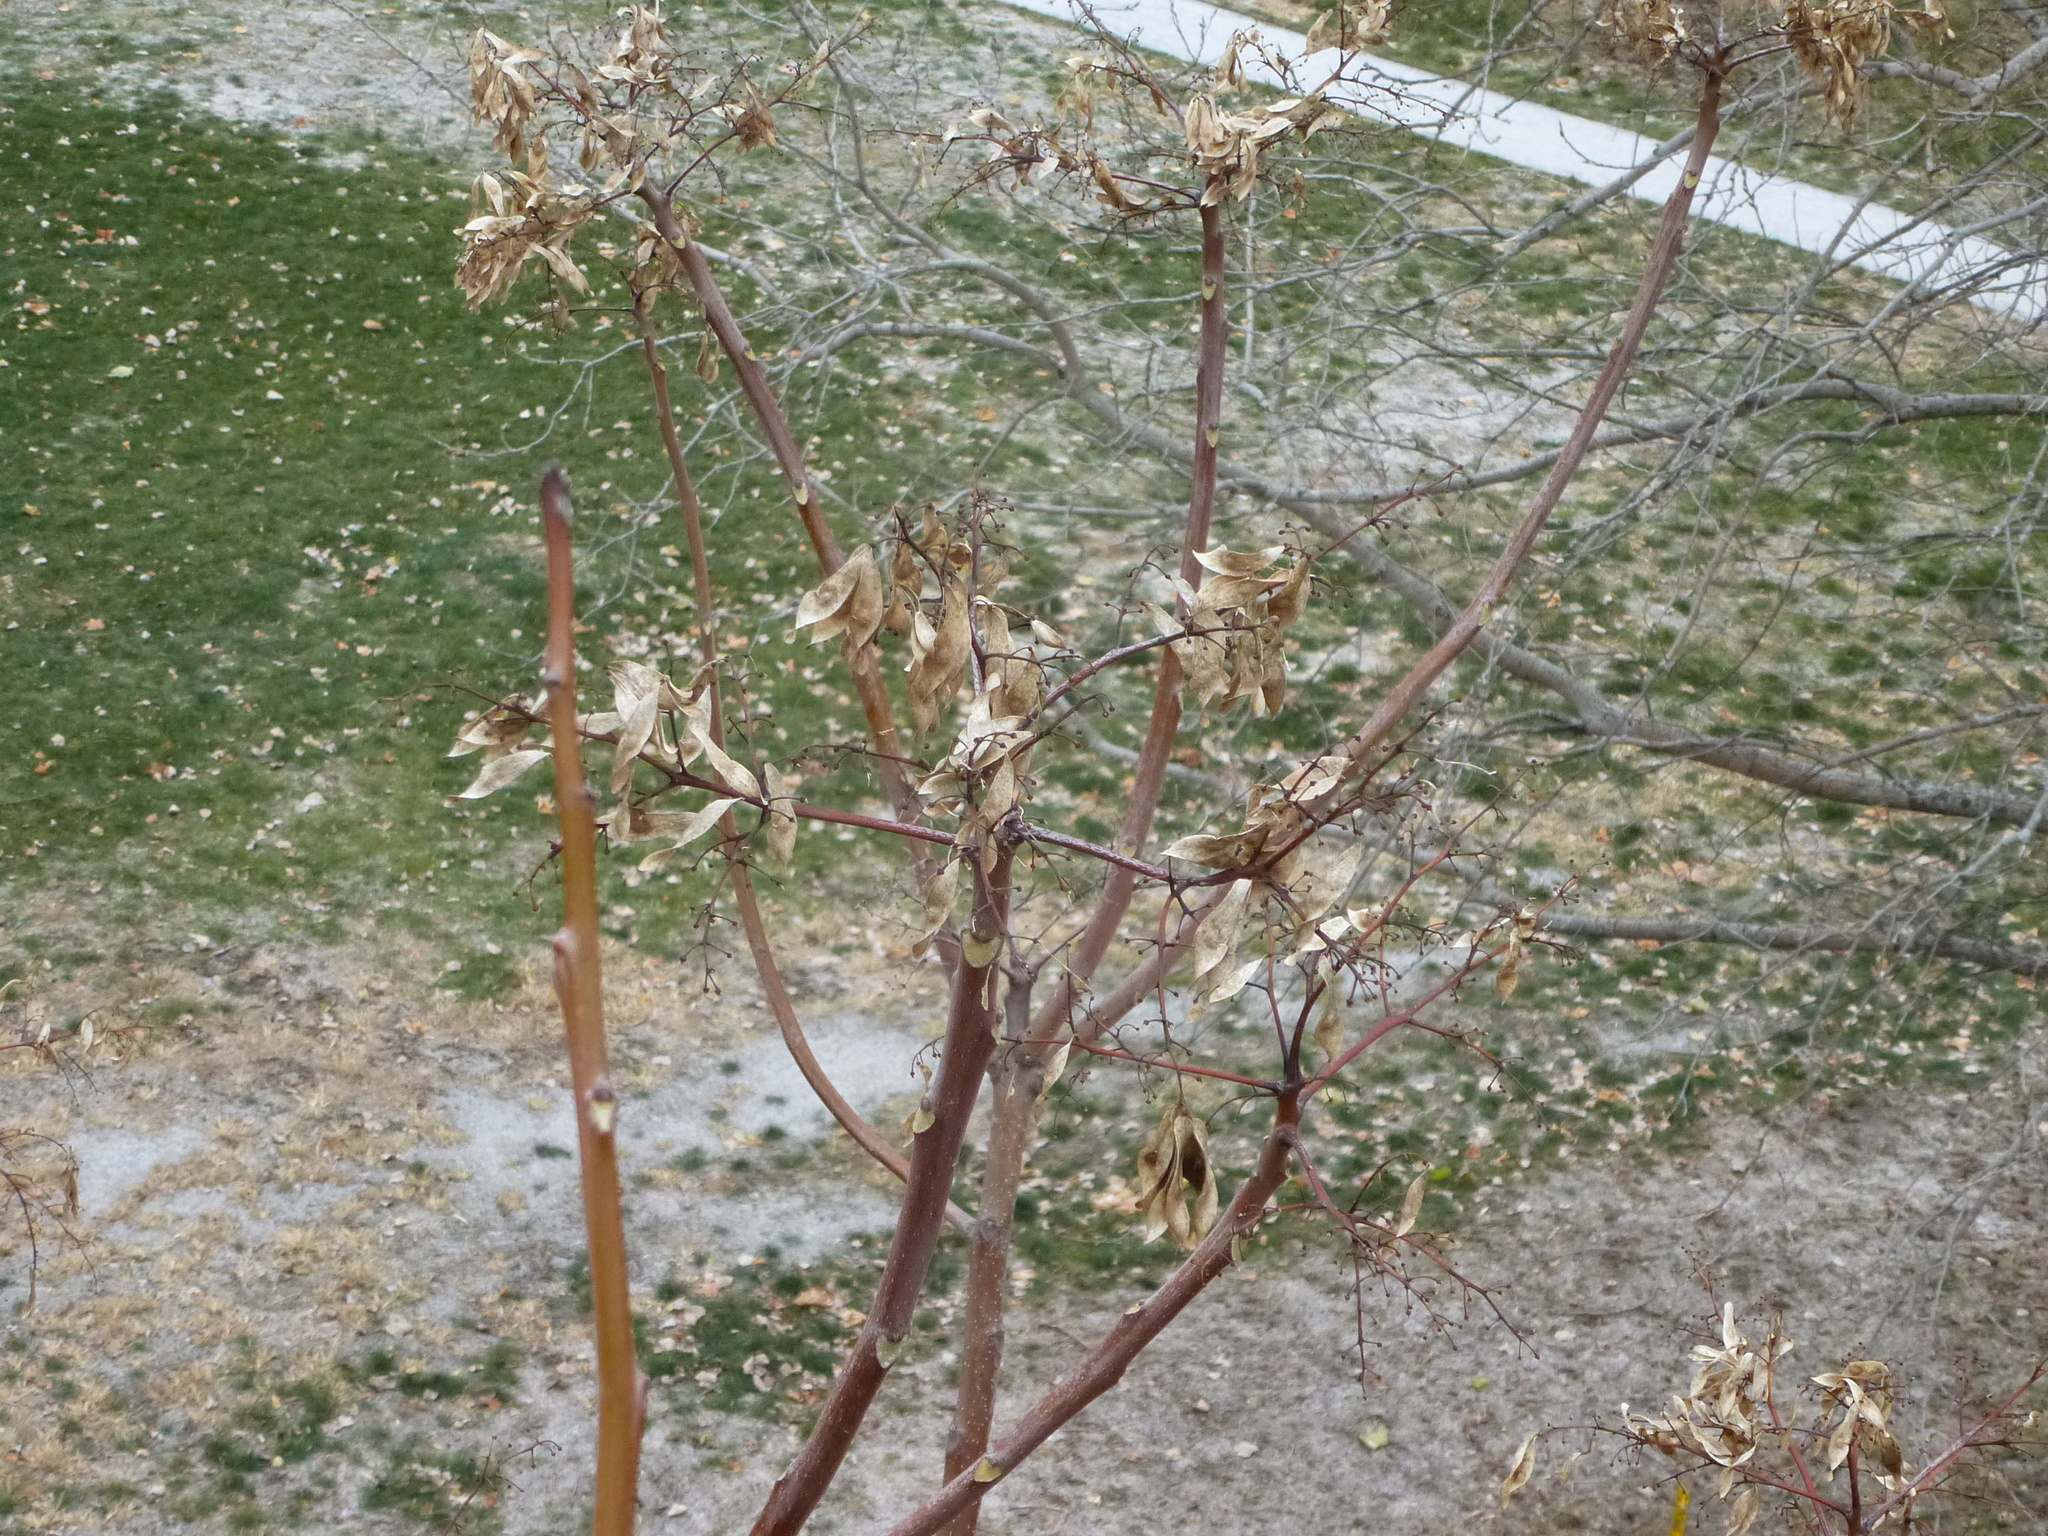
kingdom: Plantae
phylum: Tracheophyta
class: Magnoliopsida
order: Sapindales
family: Simaroubaceae
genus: Ailanthus
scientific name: Ailanthus altissima
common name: Tree-of-heaven
